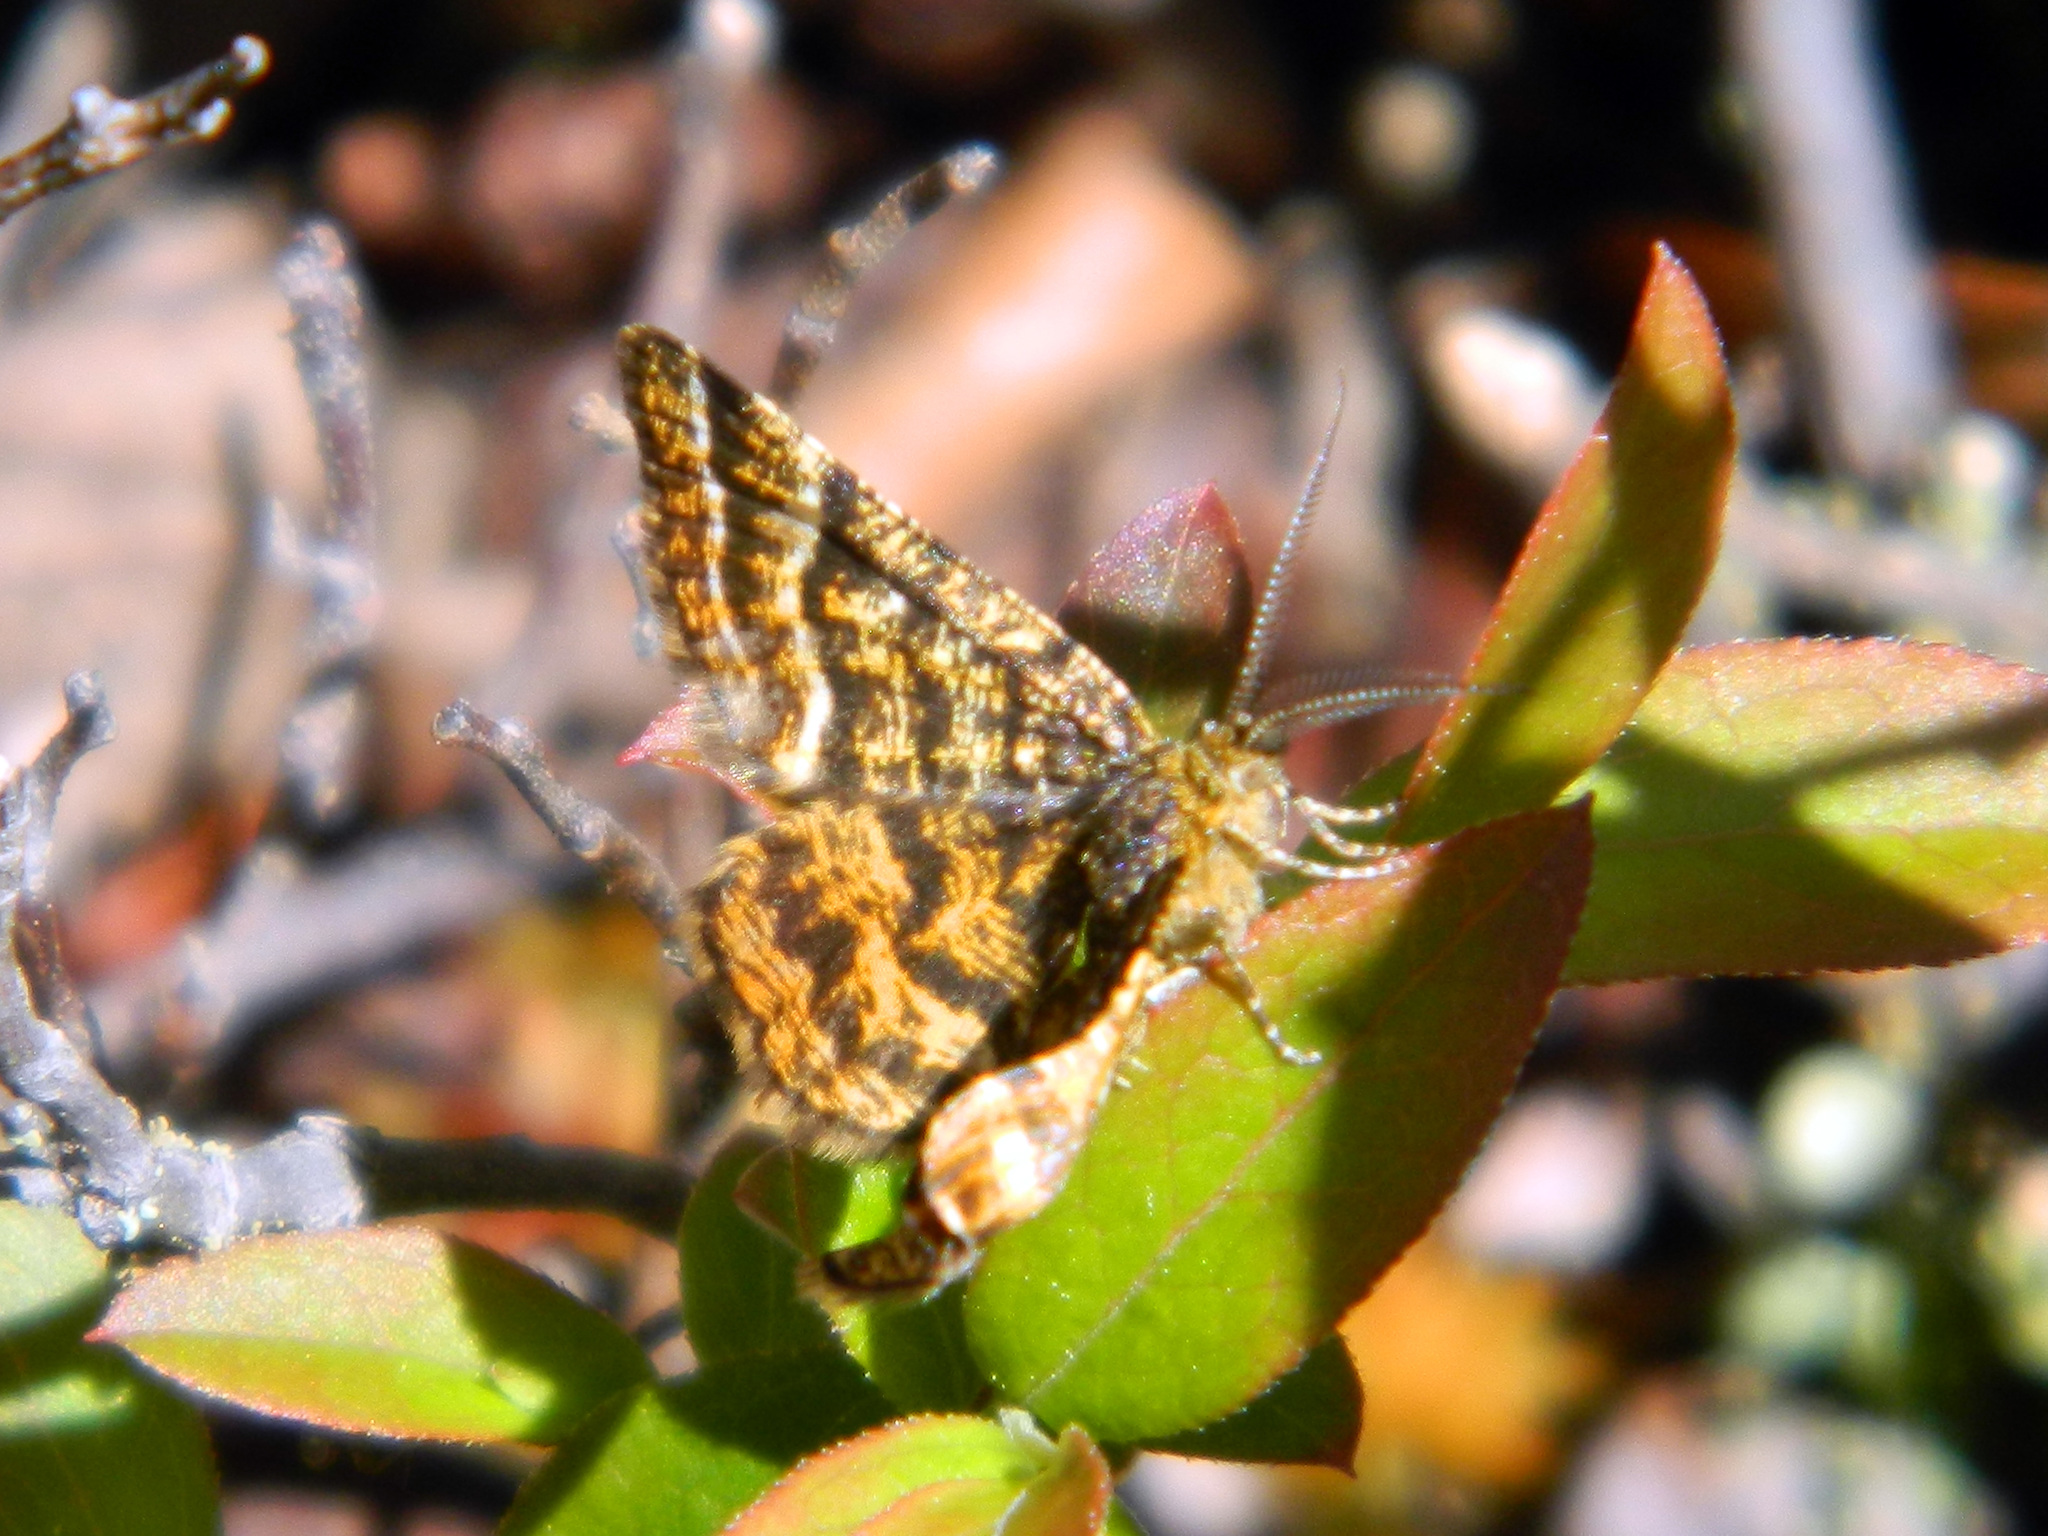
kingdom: Animalia
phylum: Arthropoda
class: Insecta
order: Lepidoptera
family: Geometridae
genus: Macaria
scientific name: Macaria truncataria
